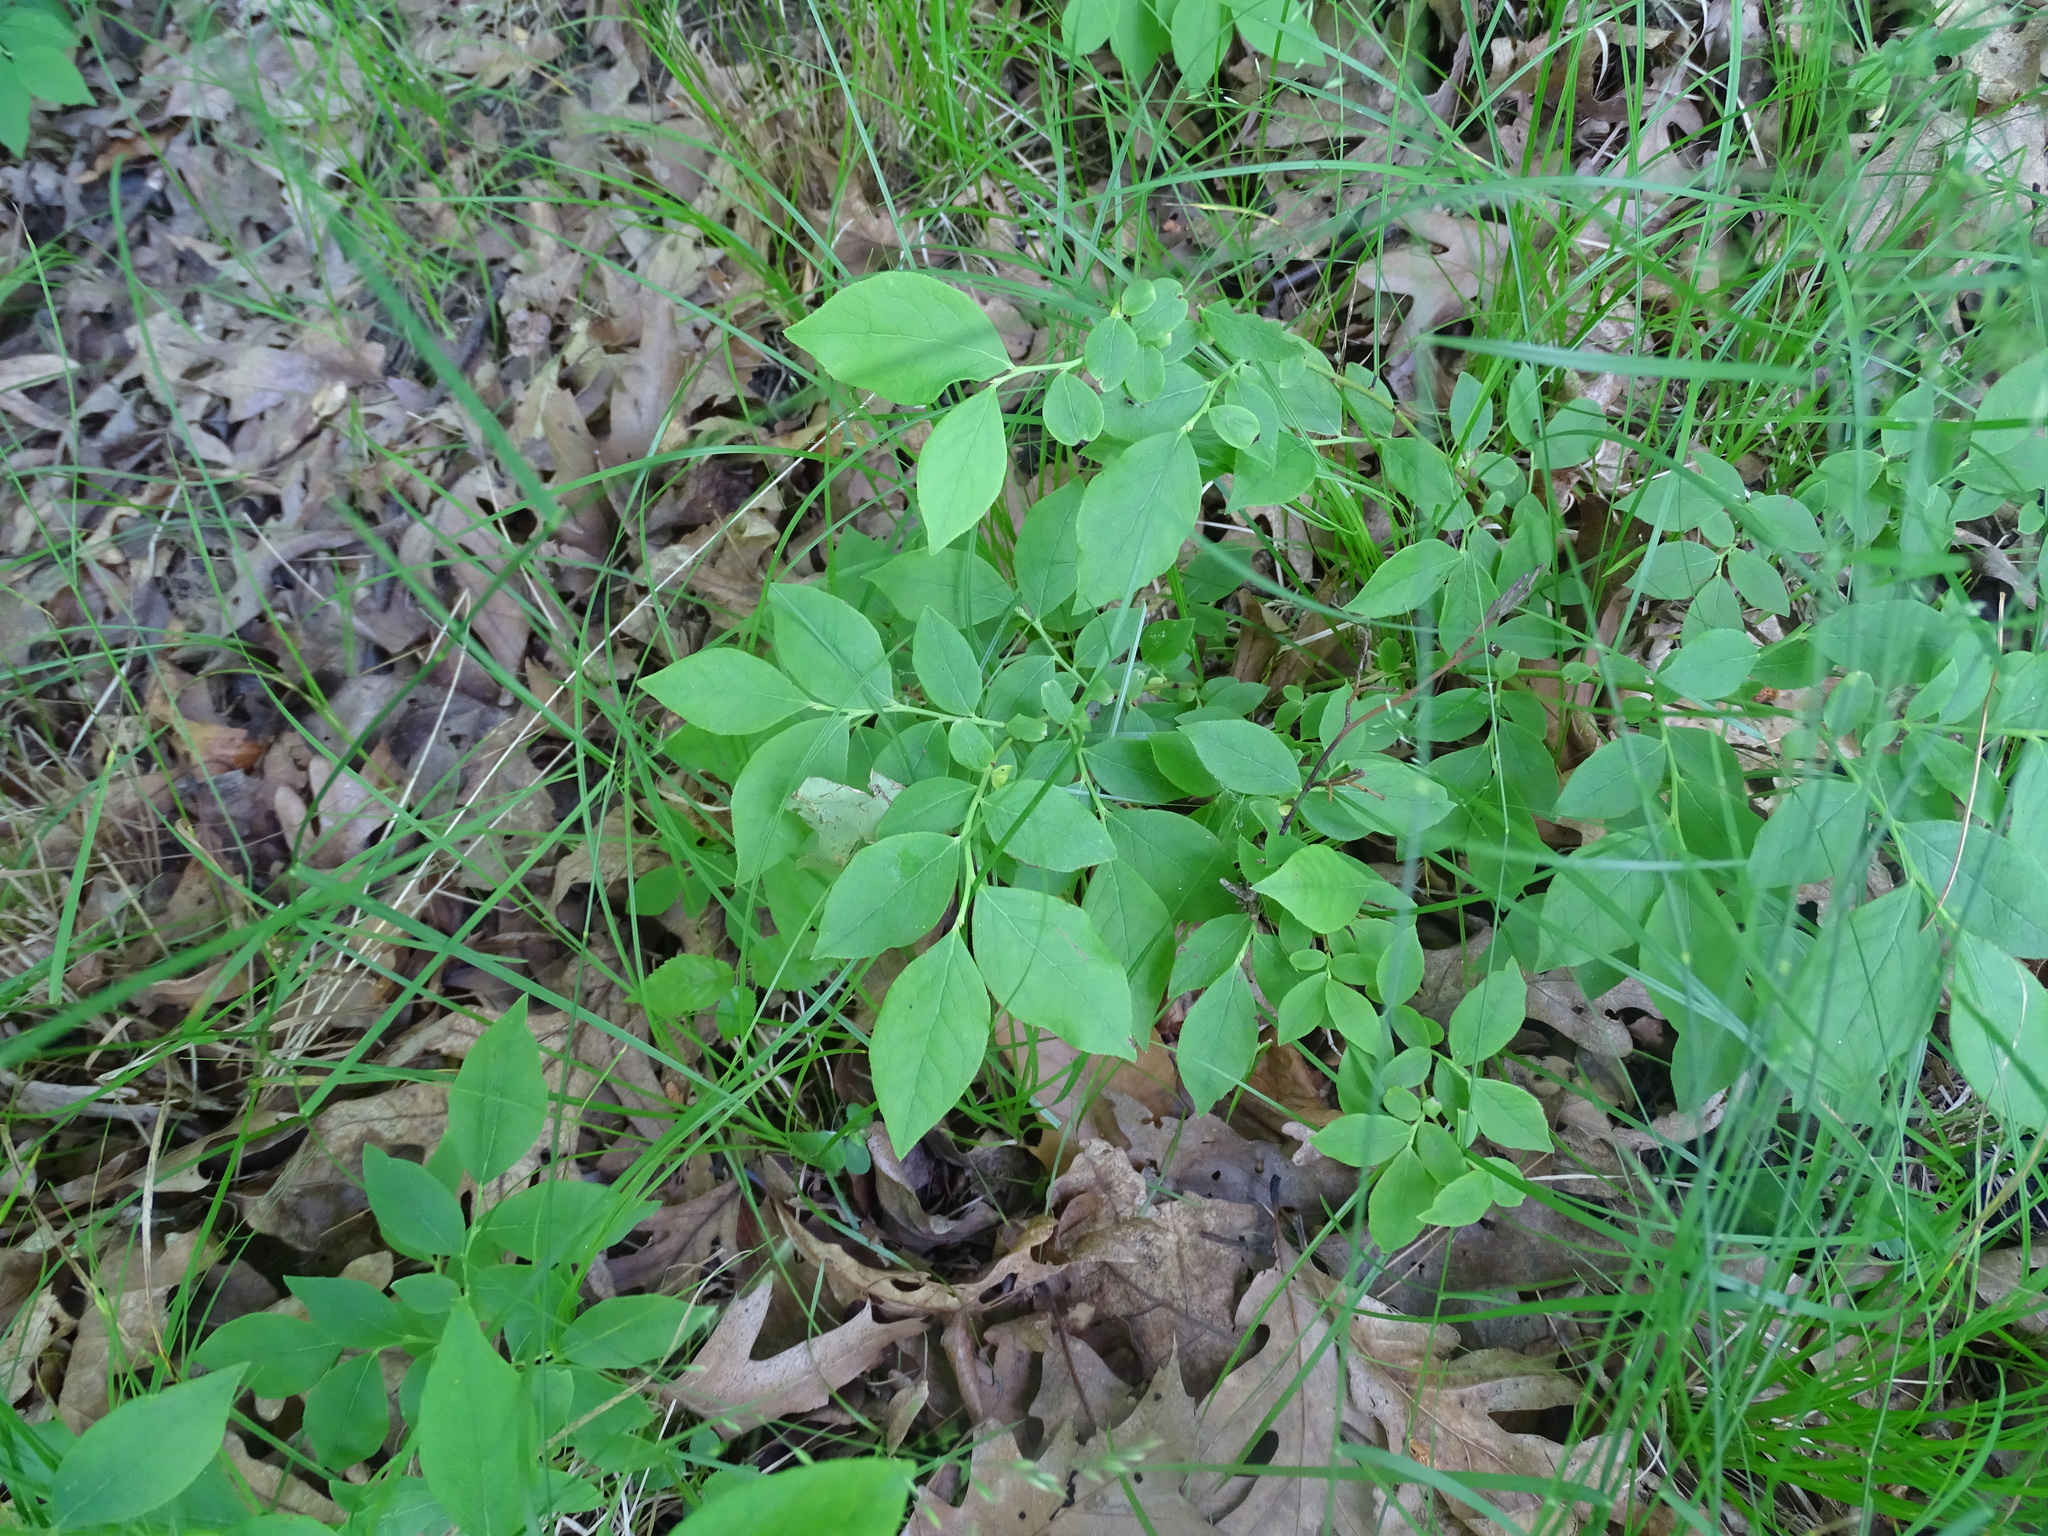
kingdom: Plantae
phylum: Tracheophyta
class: Magnoliopsida
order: Ericales
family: Ericaceae
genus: Vaccinium
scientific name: Vaccinium pallidum
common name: Blue ridge blueberry
